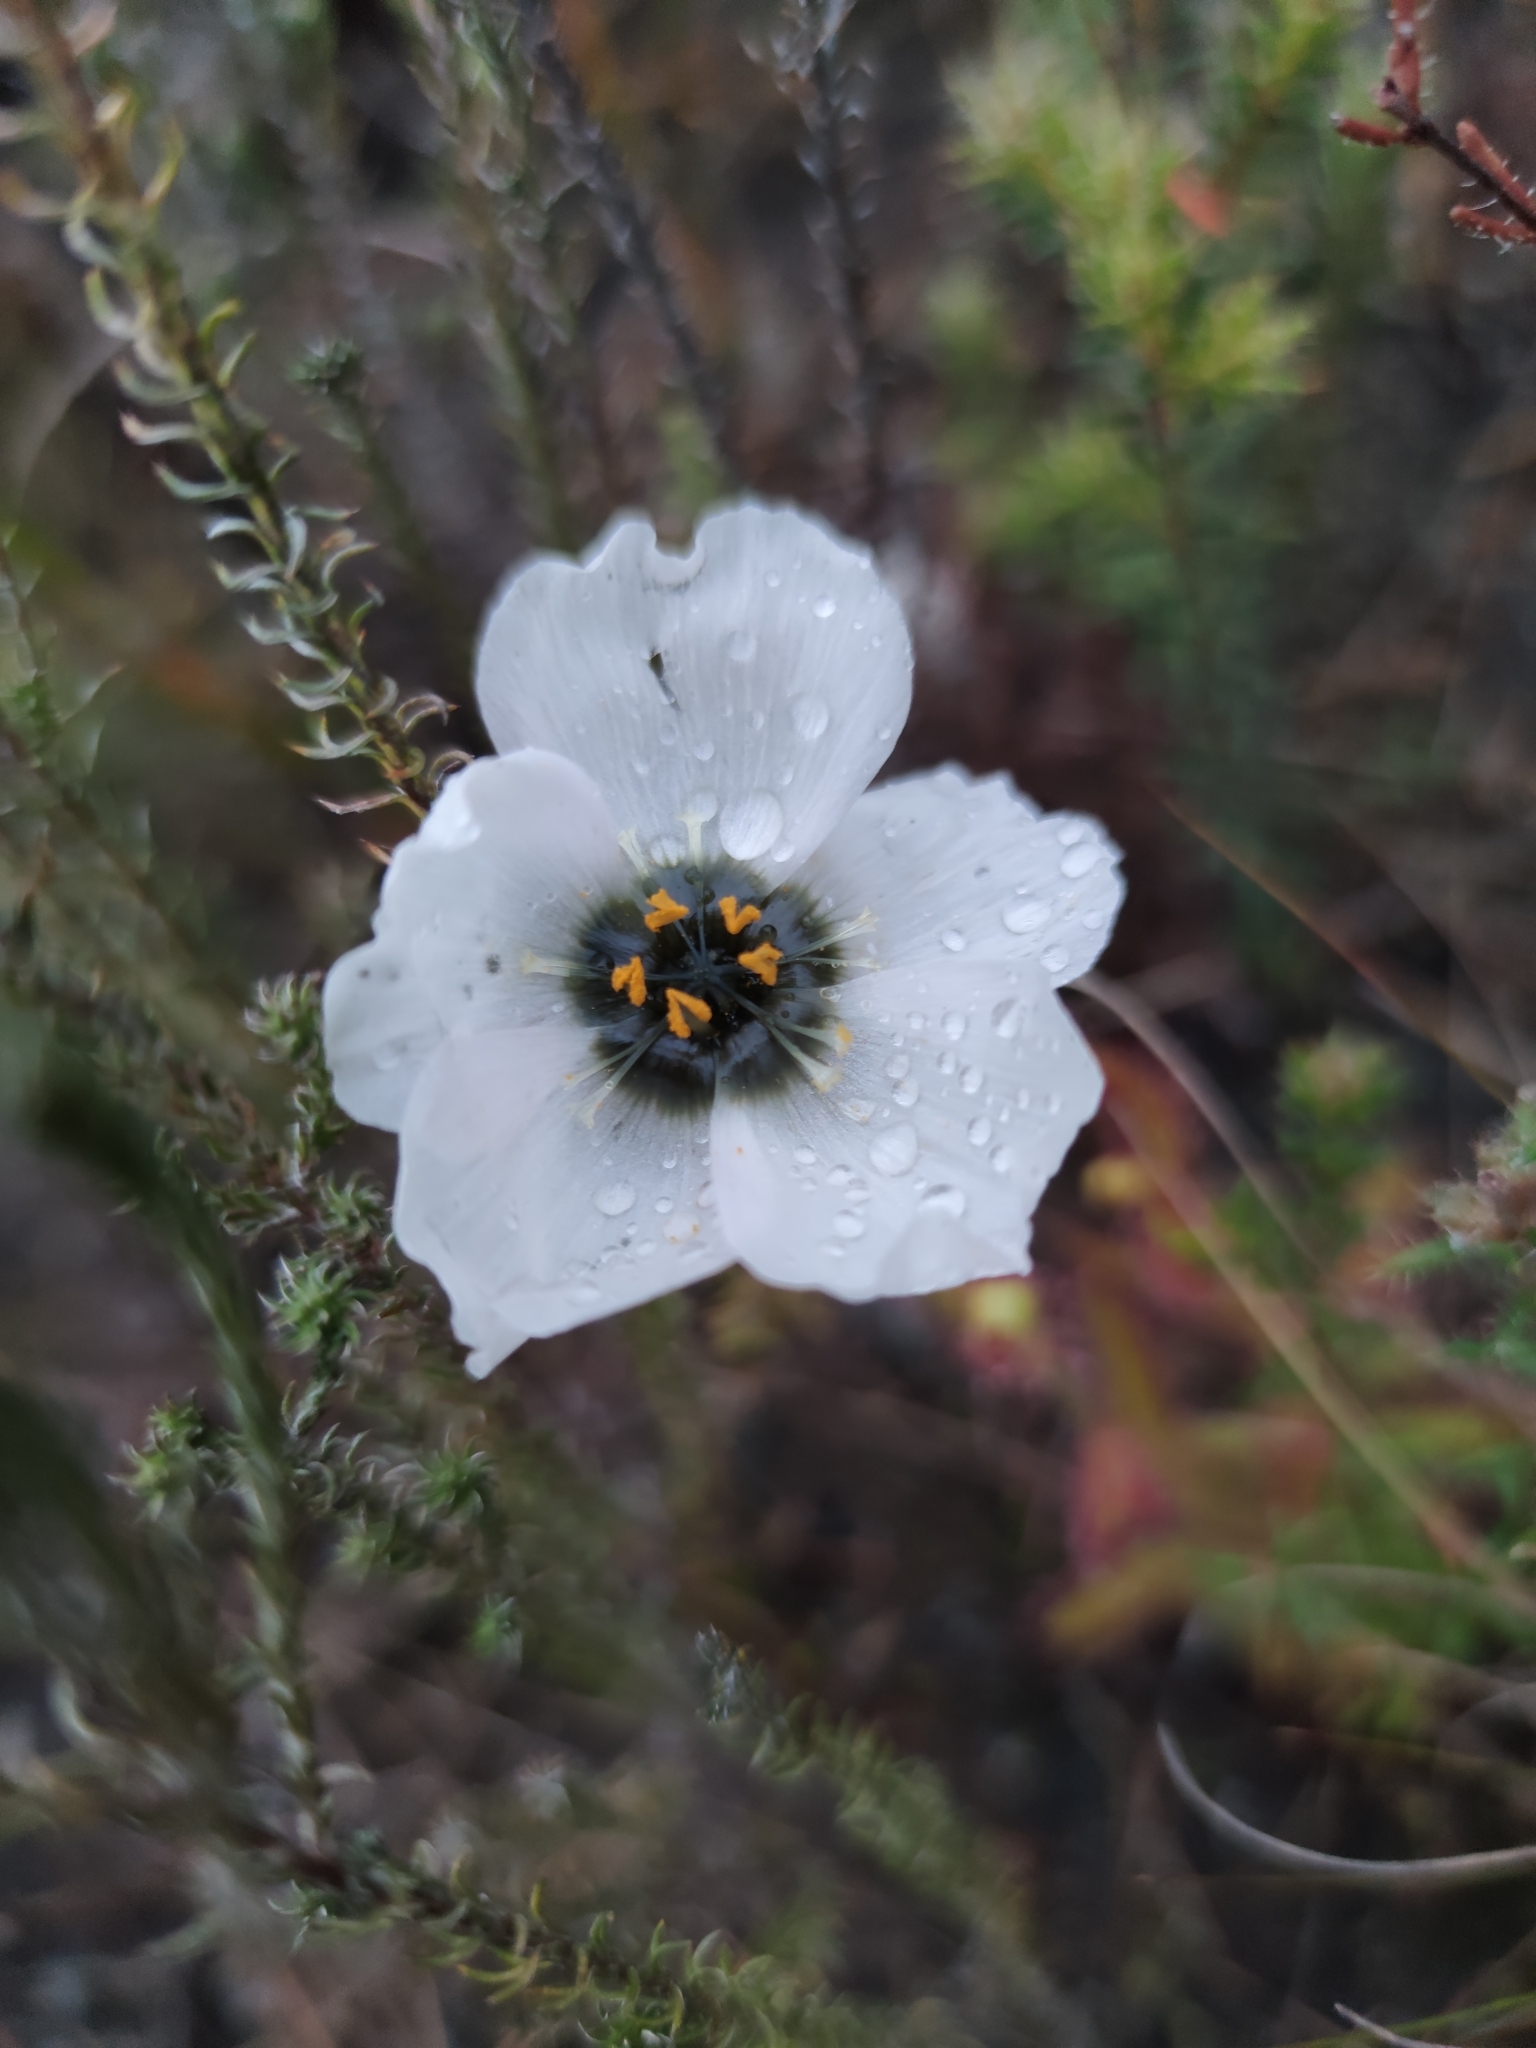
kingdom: Plantae
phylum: Tracheophyta
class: Magnoliopsida
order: Caryophyllales
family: Droseraceae
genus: Drosera
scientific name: Drosera cistiflora
